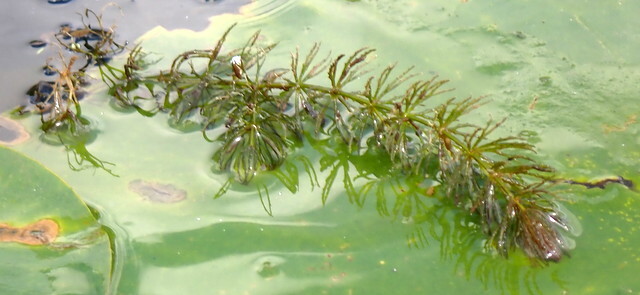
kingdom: Plantae
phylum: Tracheophyta
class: Magnoliopsida
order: Ceratophyllales
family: Ceratophyllaceae
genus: Ceratophyllum
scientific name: Ceratophyllum demersum
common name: Rigid hornwort
